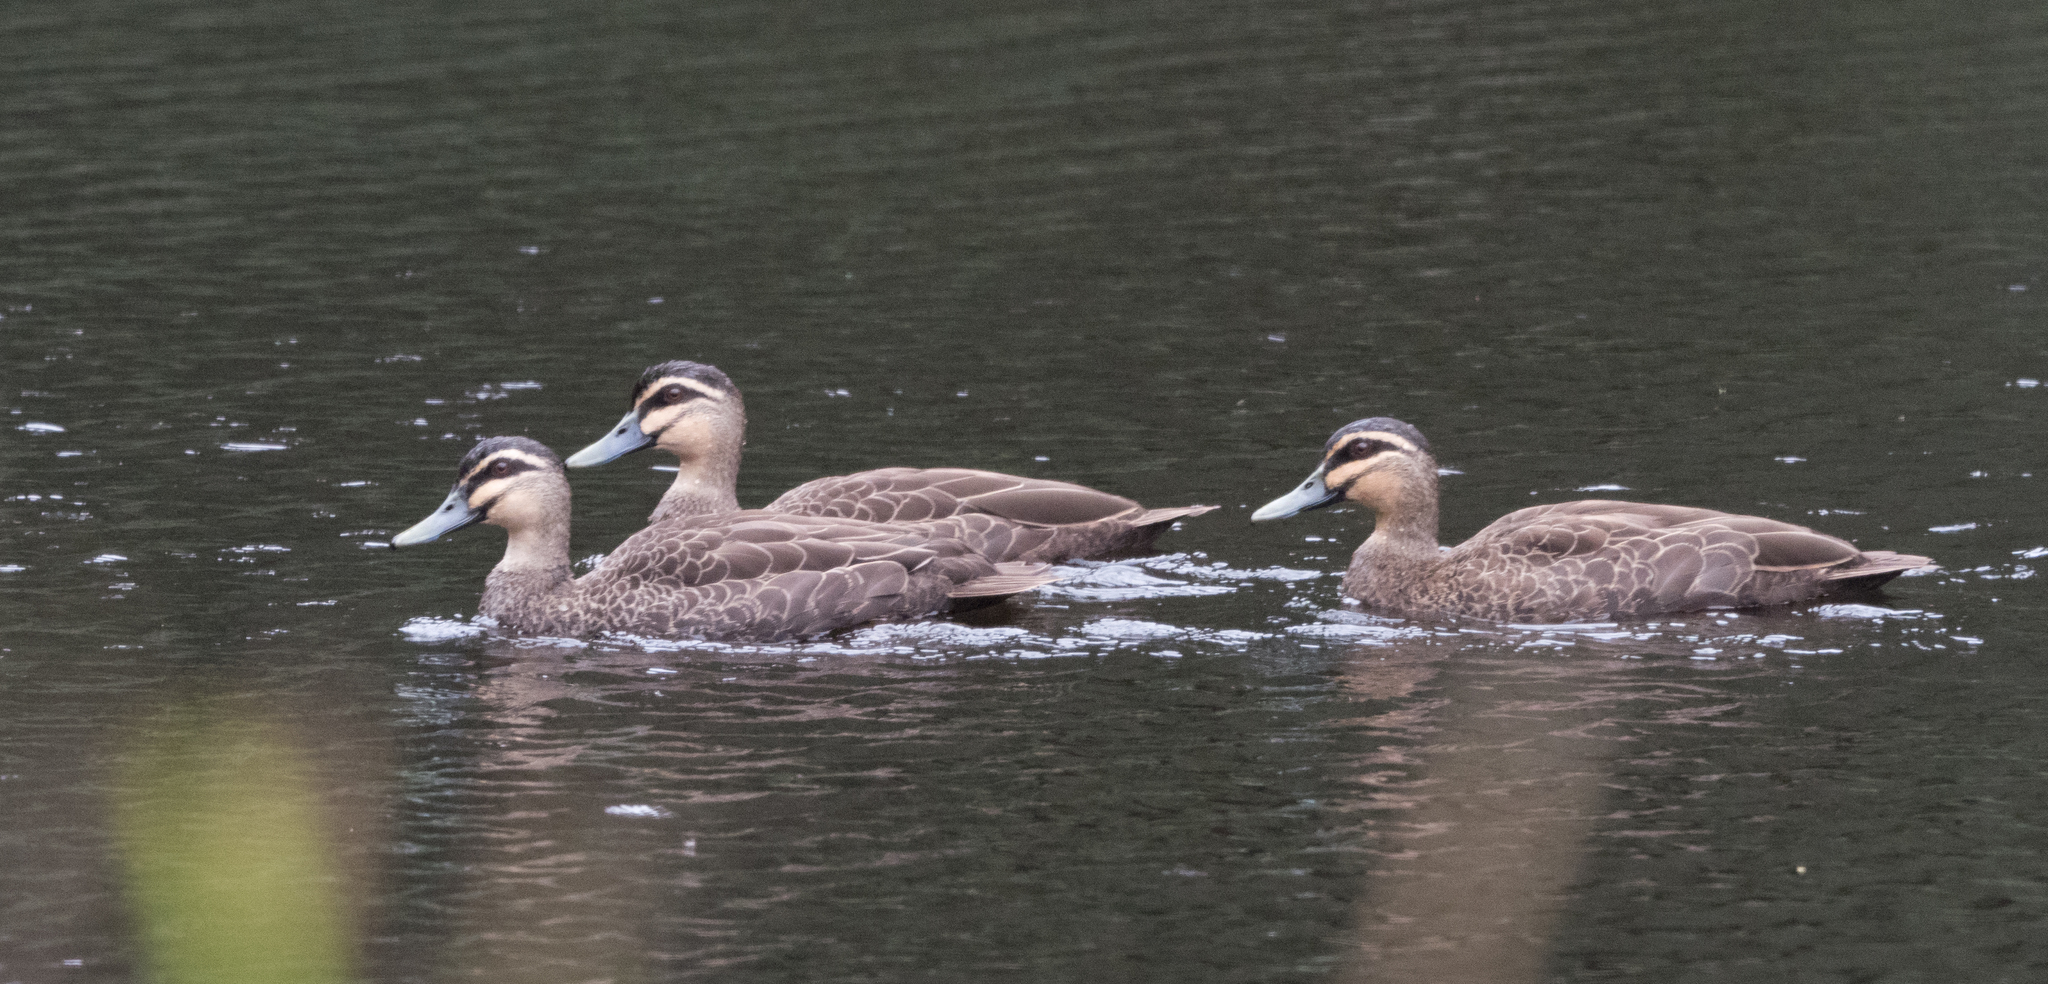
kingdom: Animalia
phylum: Chordata
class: Aves
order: Anseriformes
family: Anatidae
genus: Anas
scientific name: Anas superciliosa
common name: Pacific black duck
